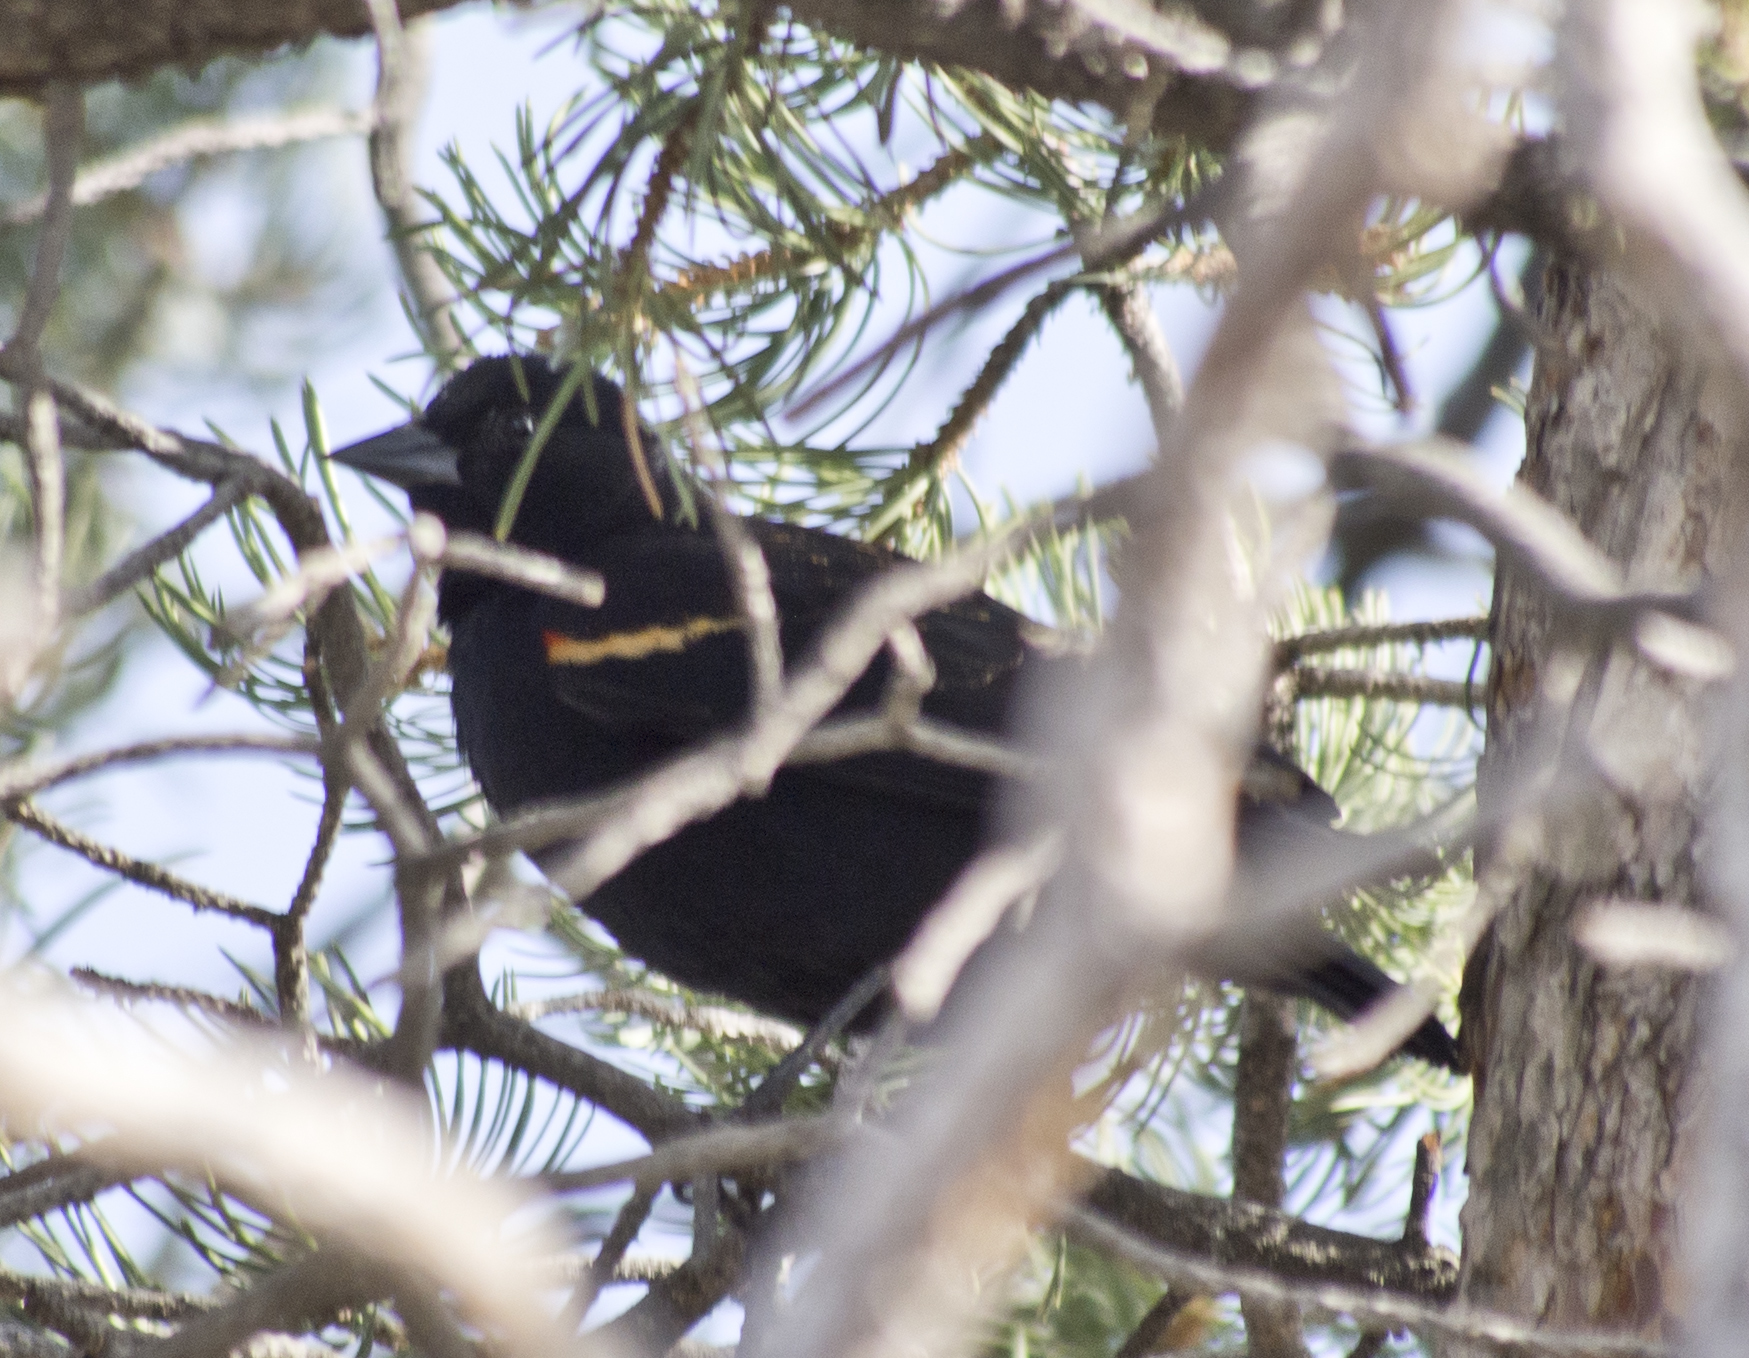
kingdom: Animalia
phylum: Chordata
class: Aves
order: Passeriformes
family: Icteridae
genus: Agelaius
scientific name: Agelaius phoeniceus
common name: Red-winged blackbird
